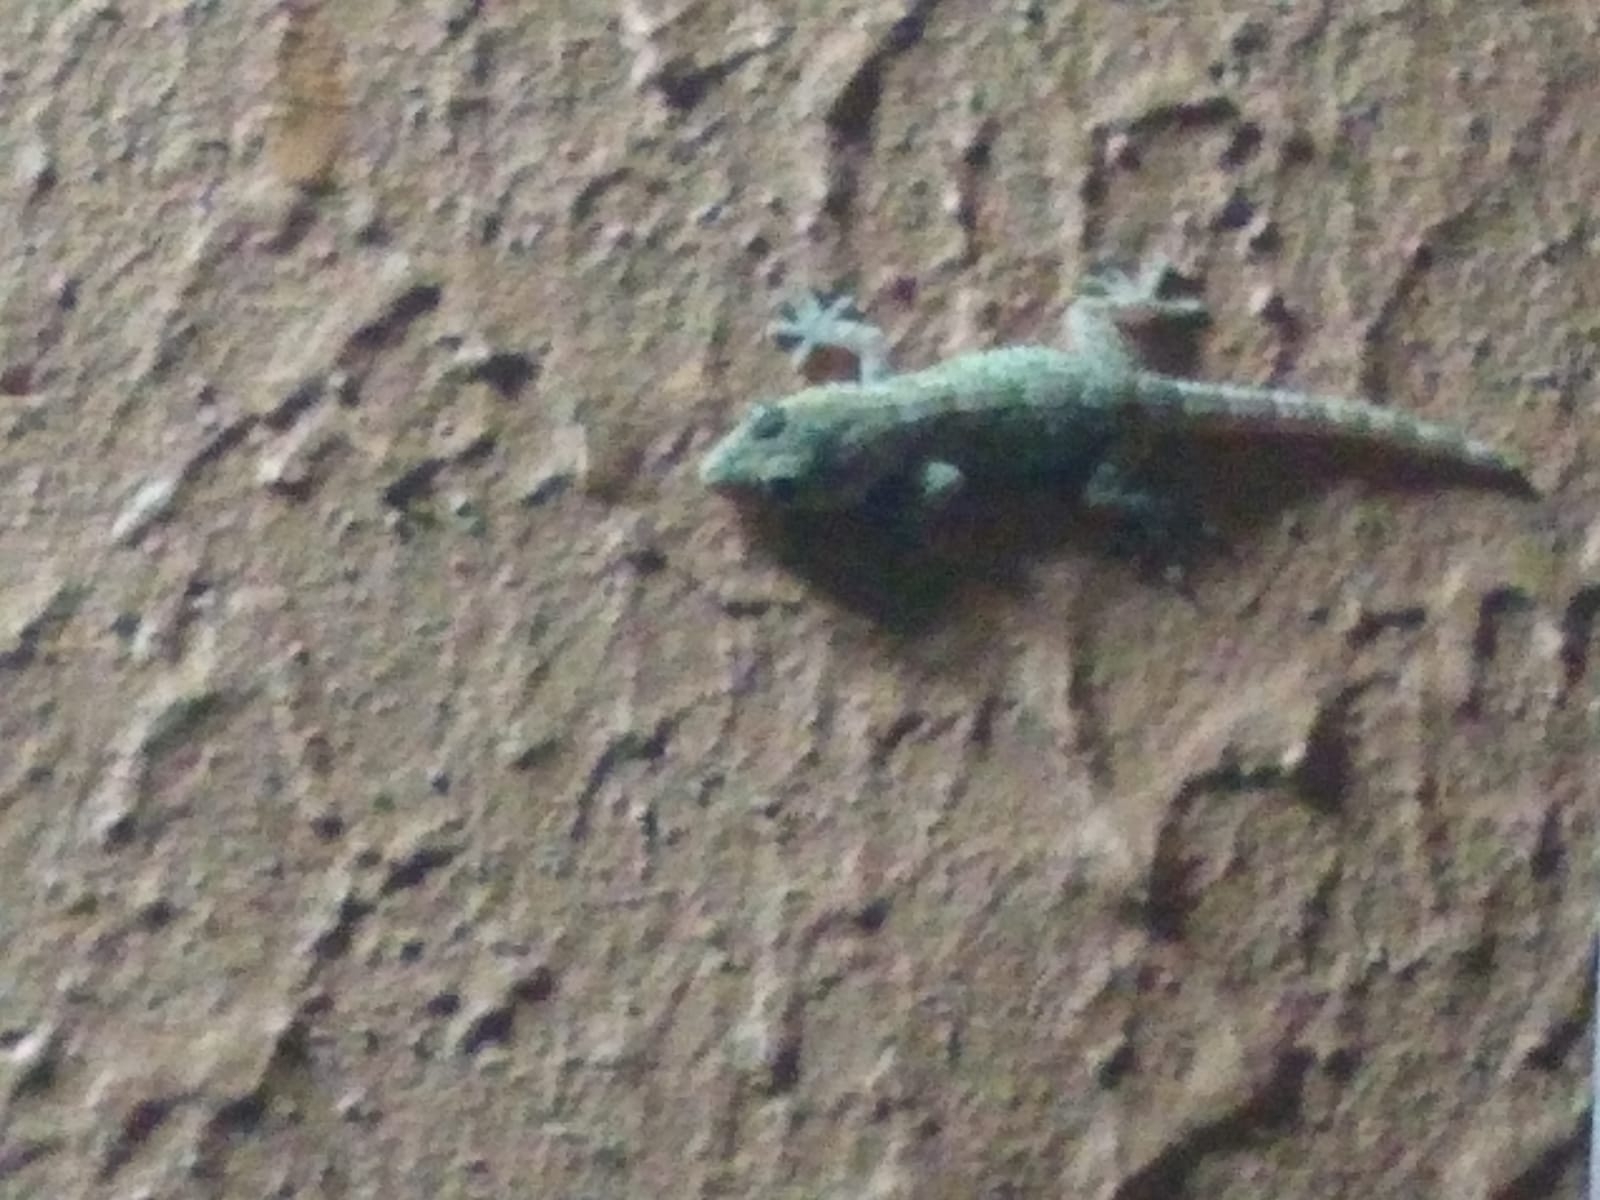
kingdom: Animalia
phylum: Chordata
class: Squamata
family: Phyllodactylidae
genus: Tarentola
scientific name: Tarentola mauritanica
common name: Moorish gecko
